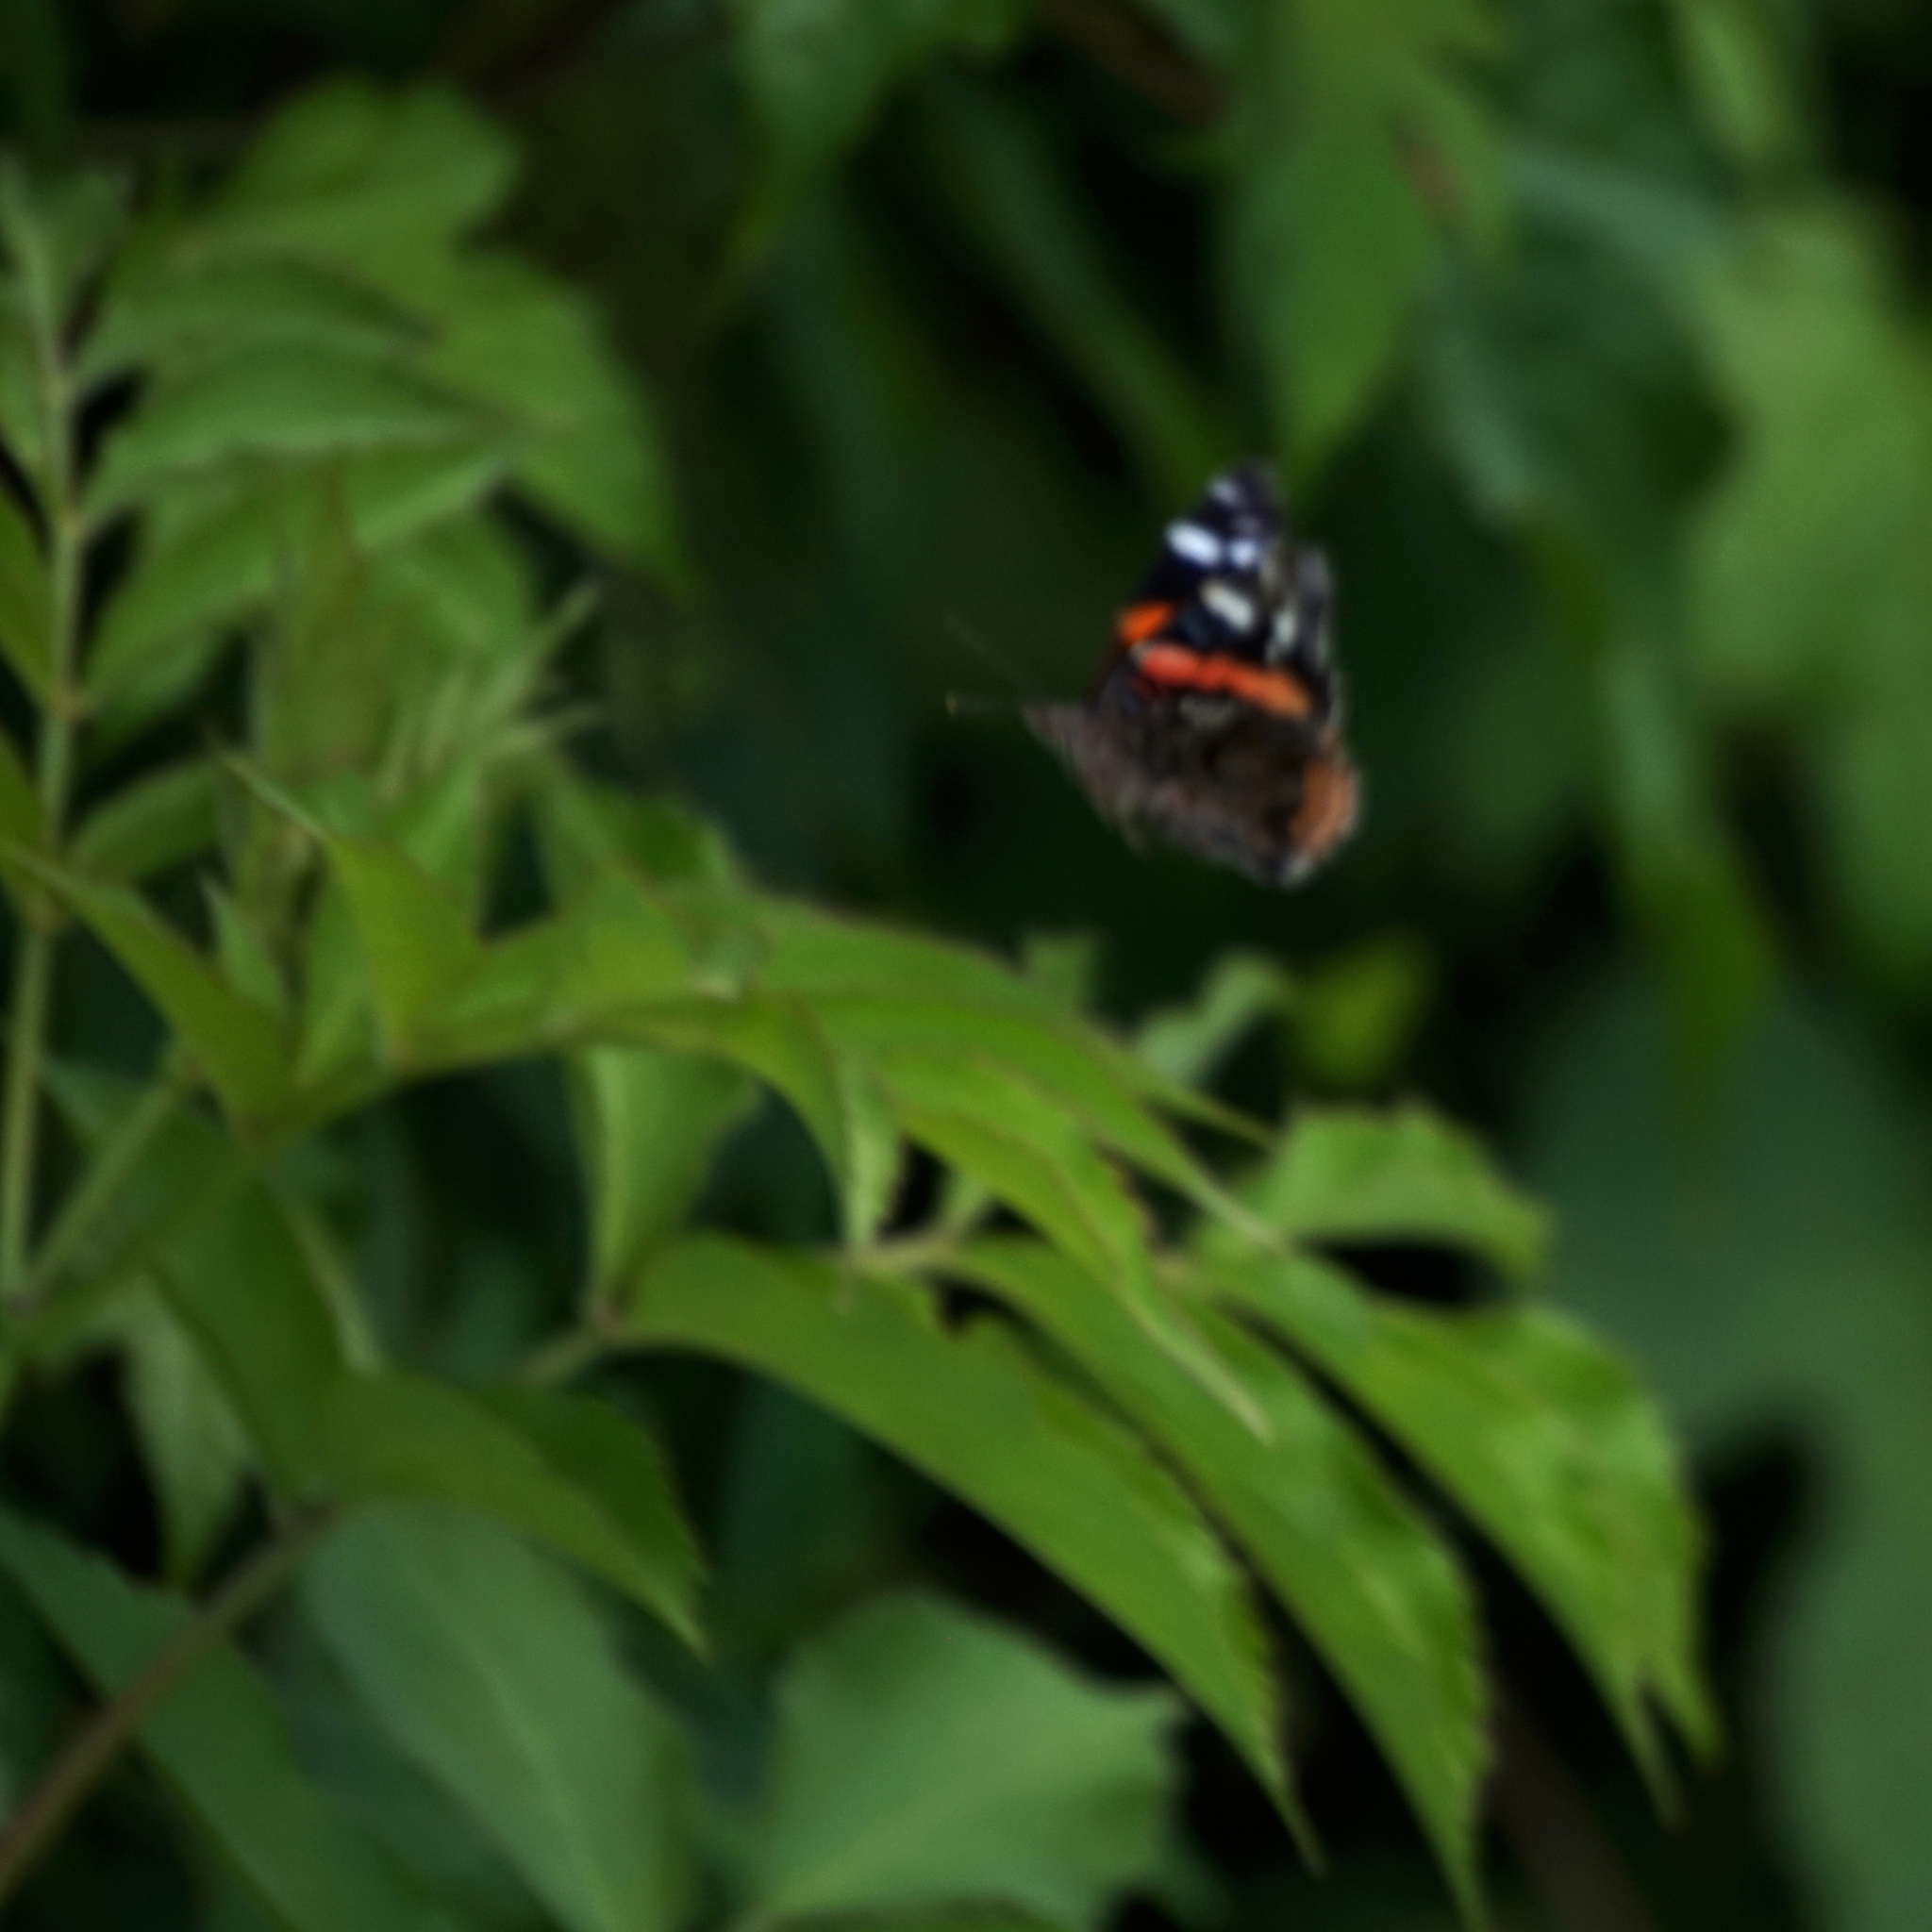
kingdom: Animalia
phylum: Arthropoda
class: Insecta
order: Lepidoptera
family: Nymphalidae
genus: Vanessa
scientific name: Vanessa atalanta
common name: Red admiral
